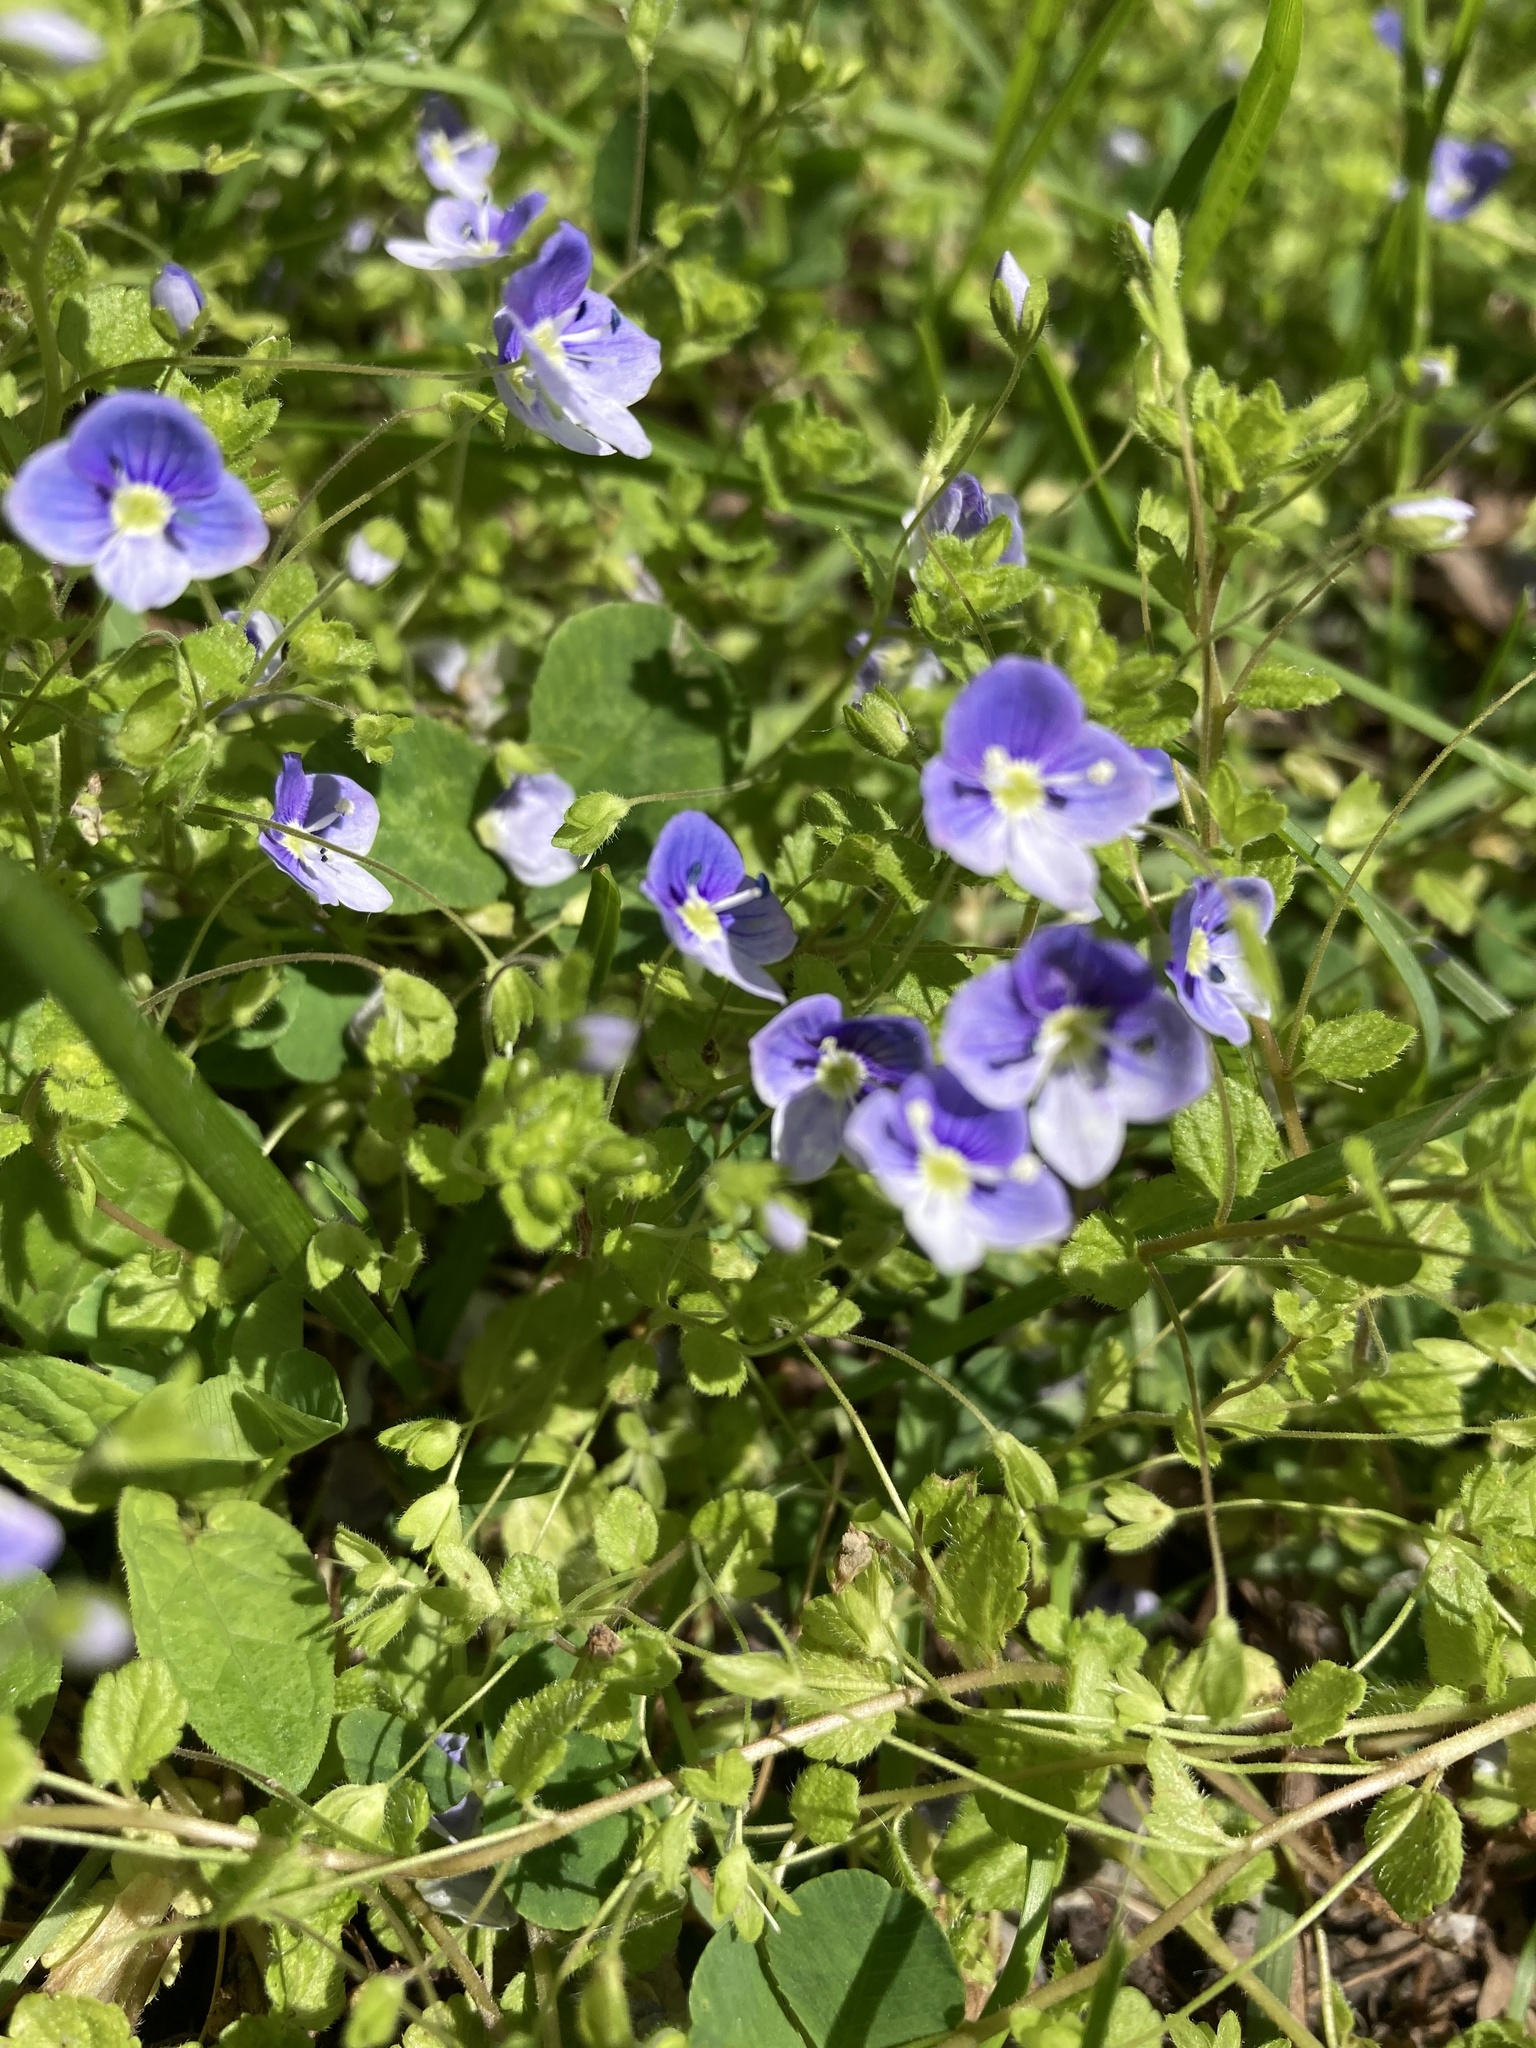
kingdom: Plantae
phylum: Tracheophyta
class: Magnoliopsida
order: Lamiales
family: Plantaginaceae
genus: Veronica
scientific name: Veronica filiformis
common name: Slender speedwell
